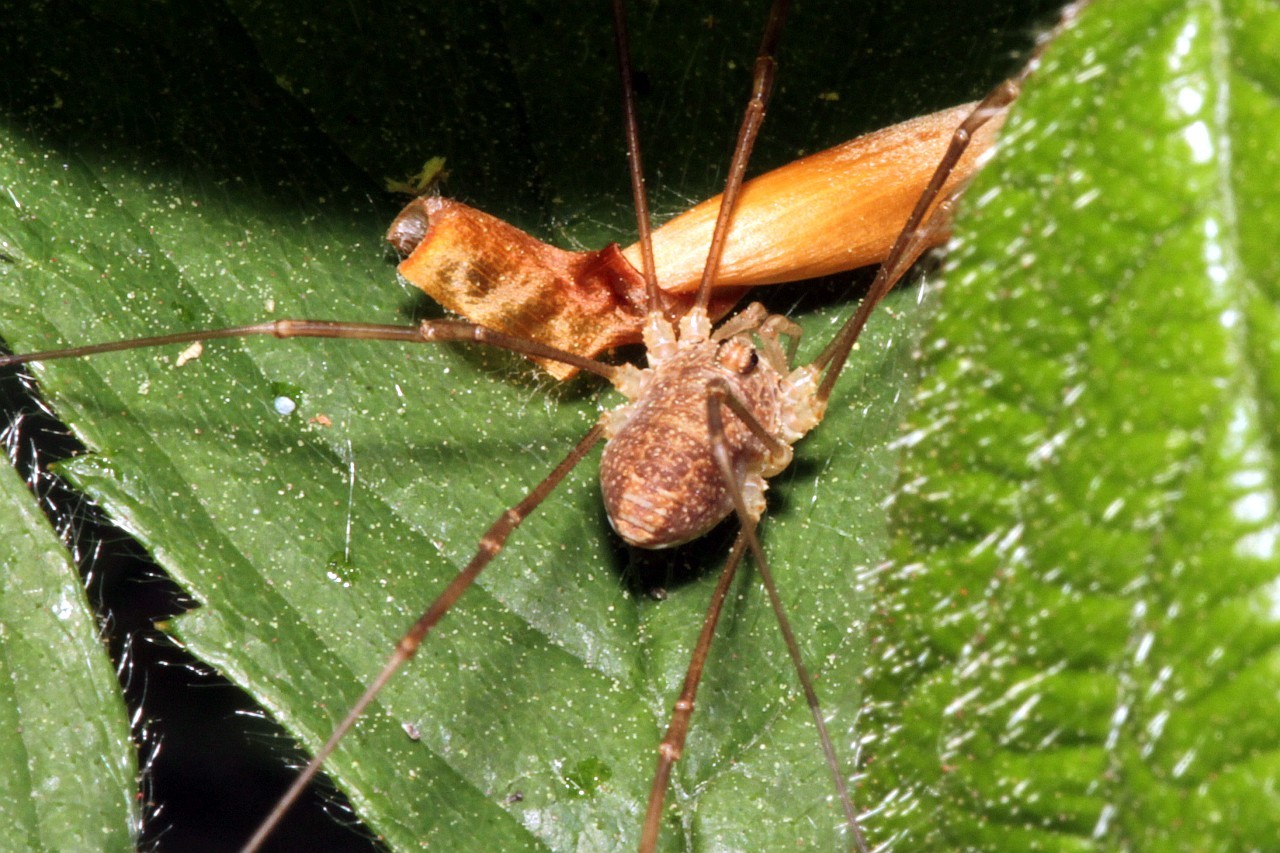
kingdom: Animalia
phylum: Arthropoda
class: Arachnida
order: Opiliones
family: Phalangiidae
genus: Rilaena
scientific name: Rilaena triangularis
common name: Spring harvestman
